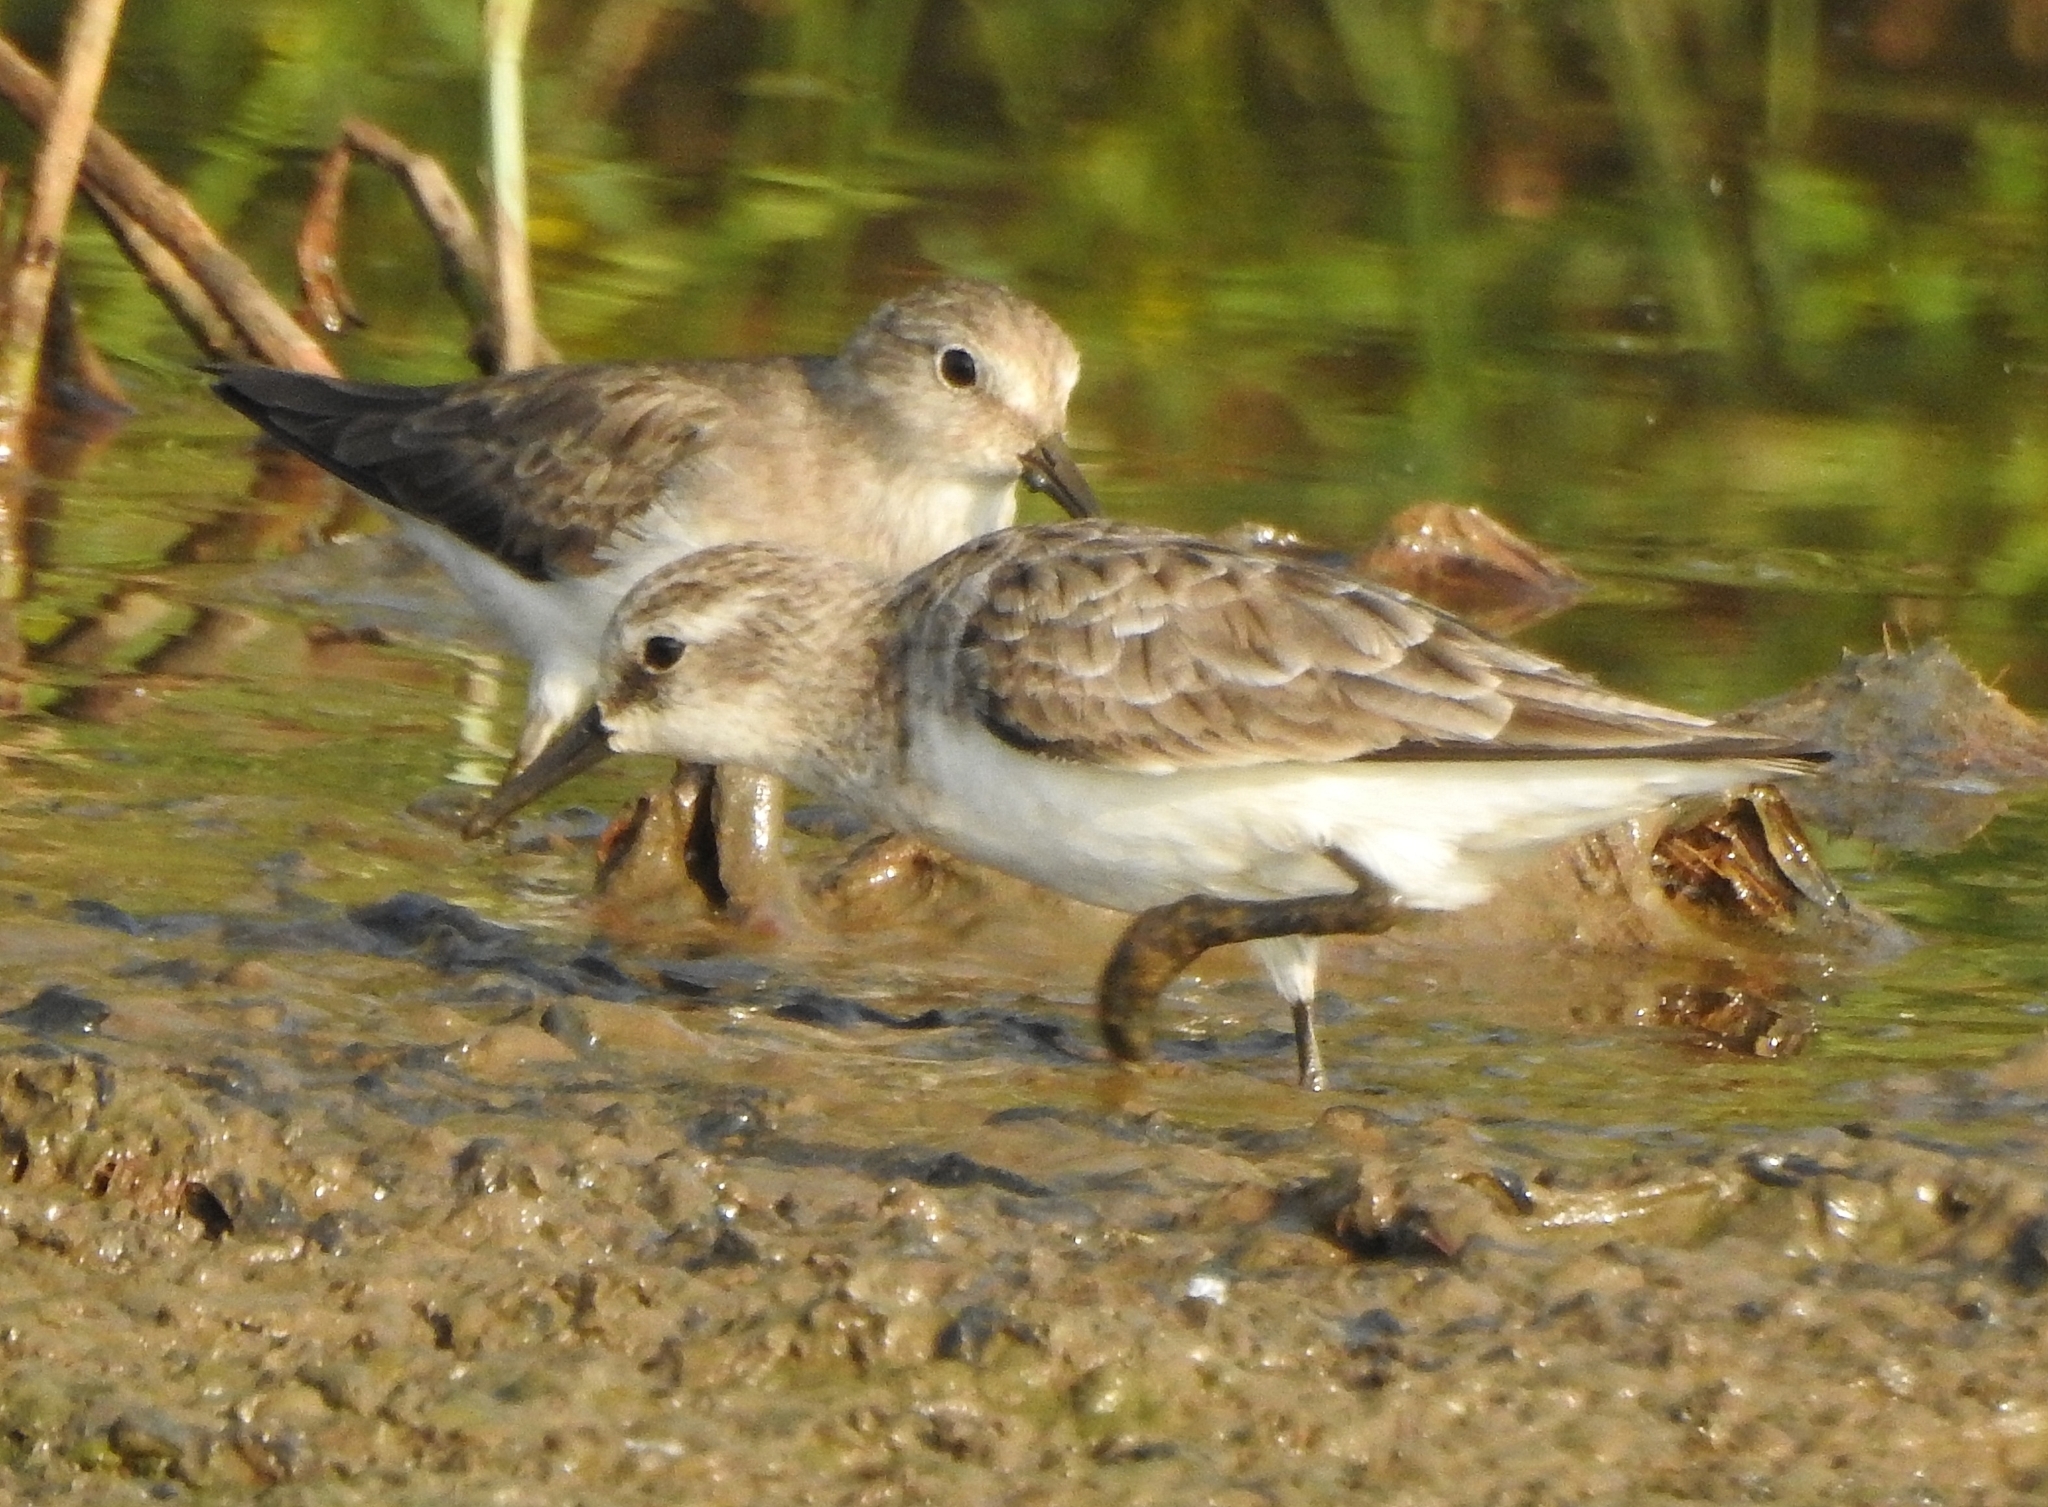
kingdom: Animalia
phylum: Chordata
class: Aves
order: Charadriiformes
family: Scolopacidae
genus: Calidris
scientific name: Calidris minuta
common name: Little stint
